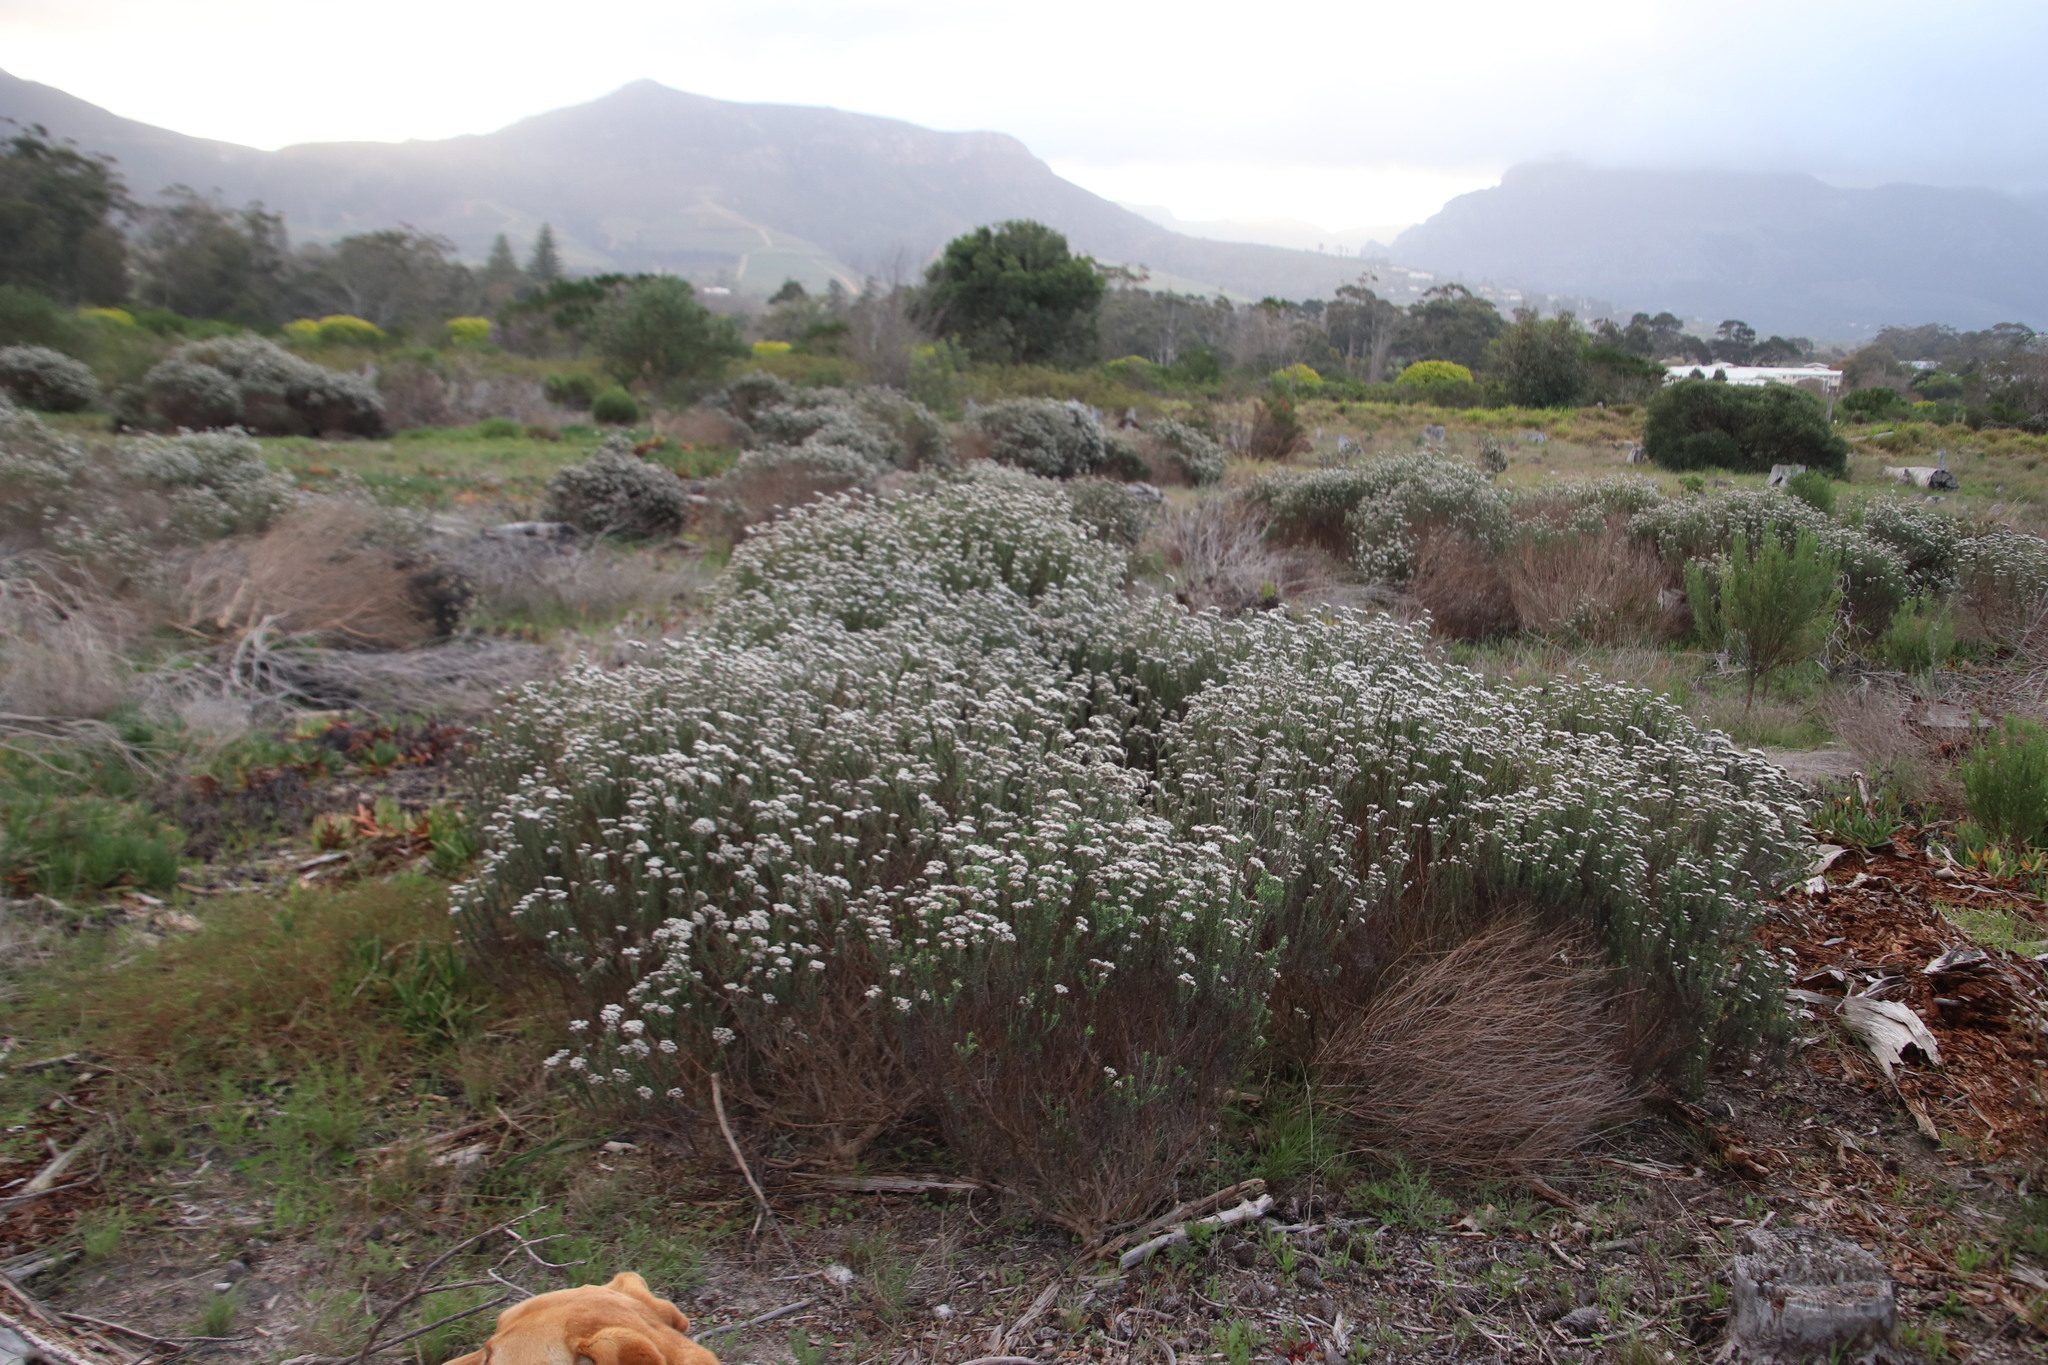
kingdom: Plantae
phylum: Tracheophyta
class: Magnoliopsida
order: Asterales
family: Asteraceae
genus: Metalasia
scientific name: Metalasia densa
